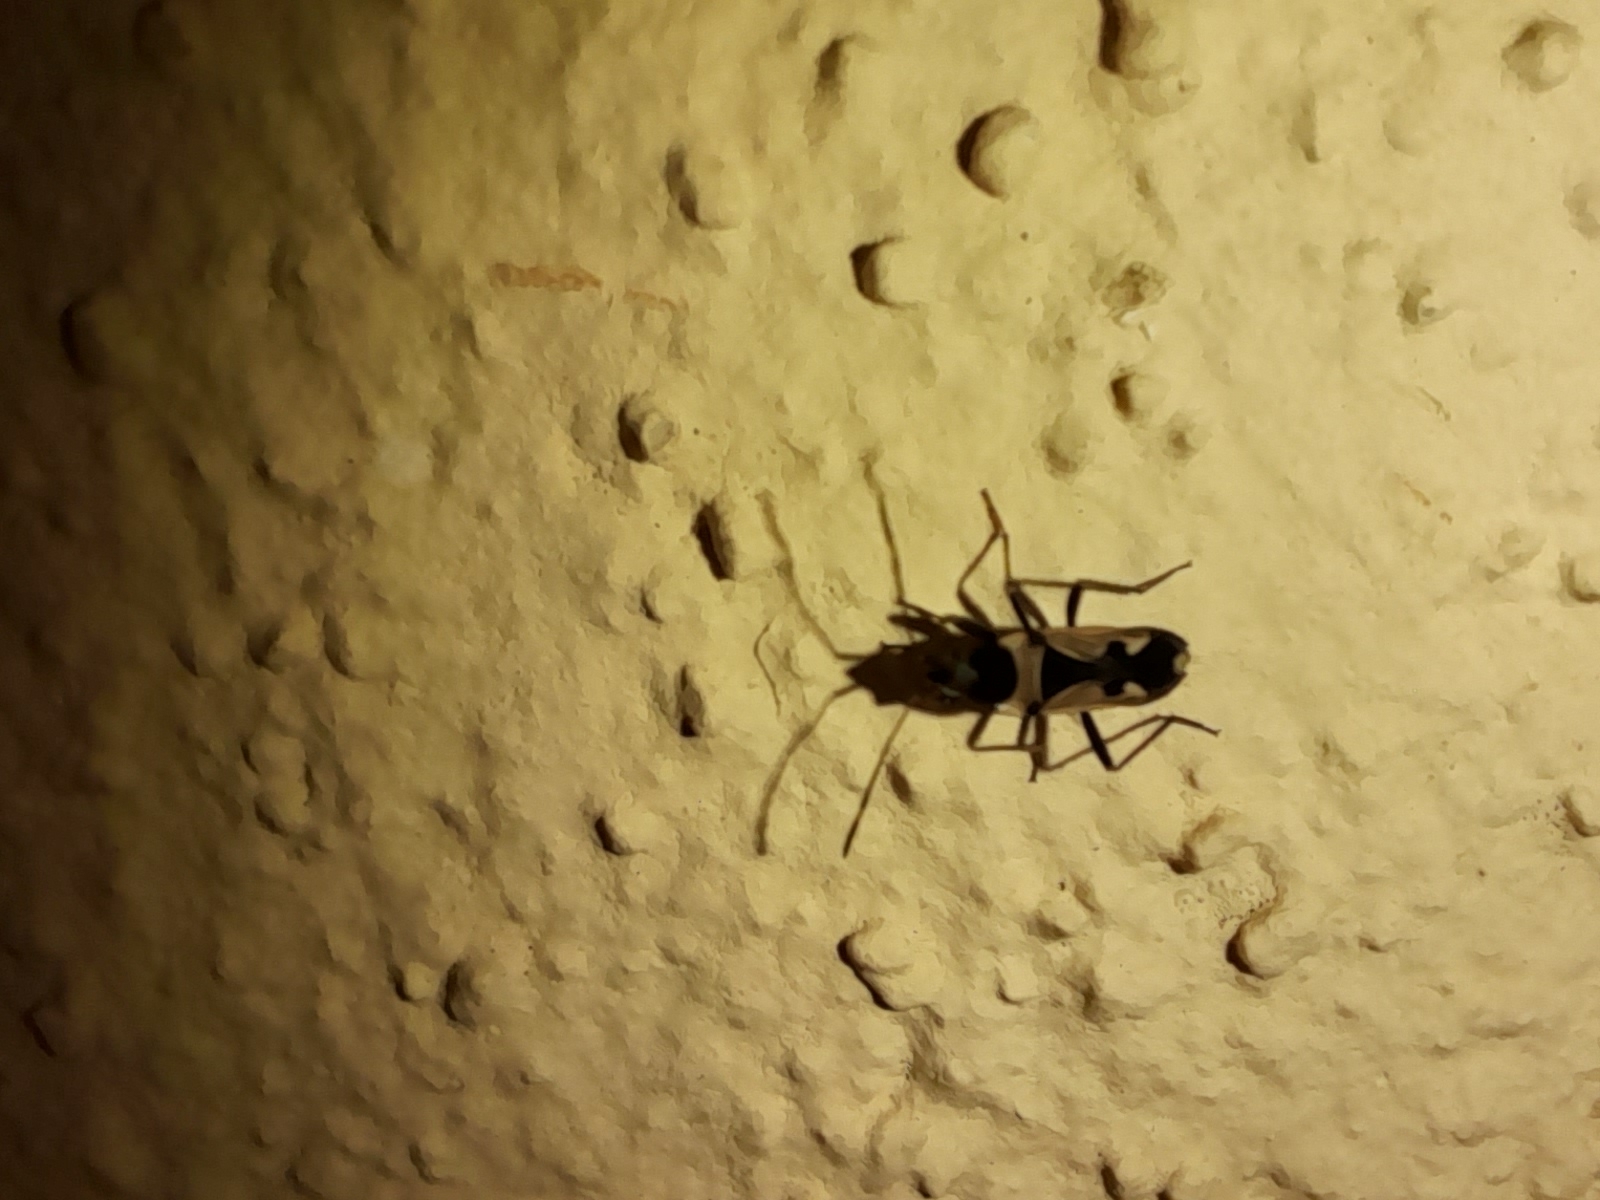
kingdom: Animalia
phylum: Arthropoda
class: Insecta
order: Hemiptera
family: Rhyparochromidae
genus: Raglius
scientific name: Raglius confusus
